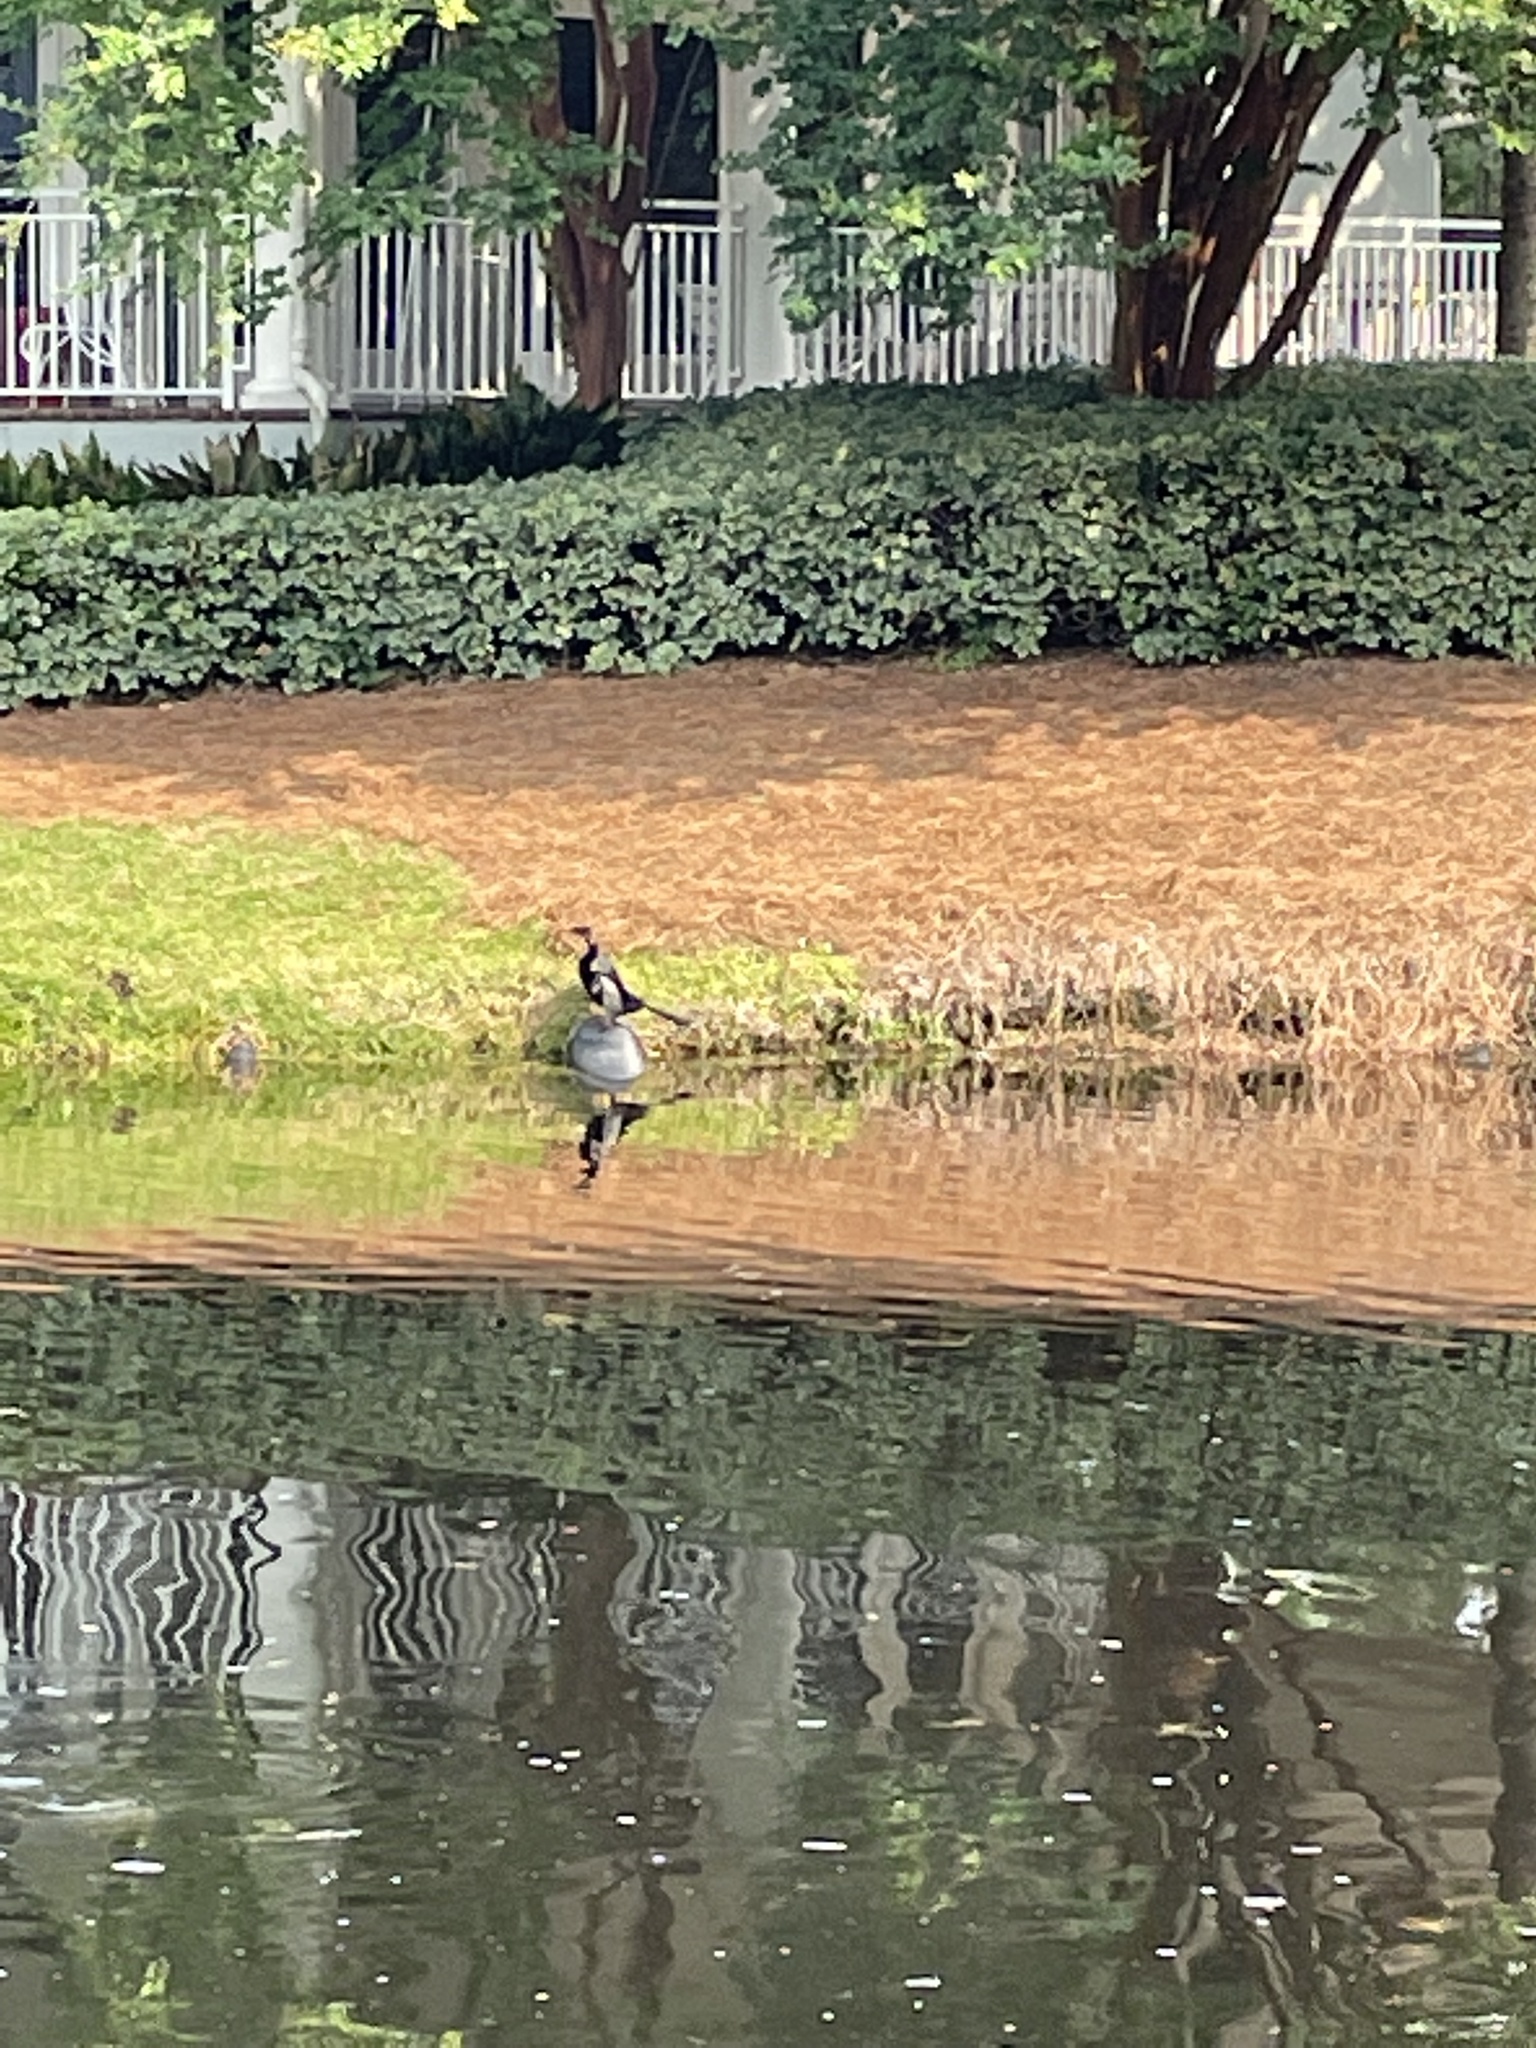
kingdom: Animalia
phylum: Chordata
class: Aves
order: Suliformes
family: Anhingidae
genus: Anhinga
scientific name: Anhinga anhinga
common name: Anhinga
